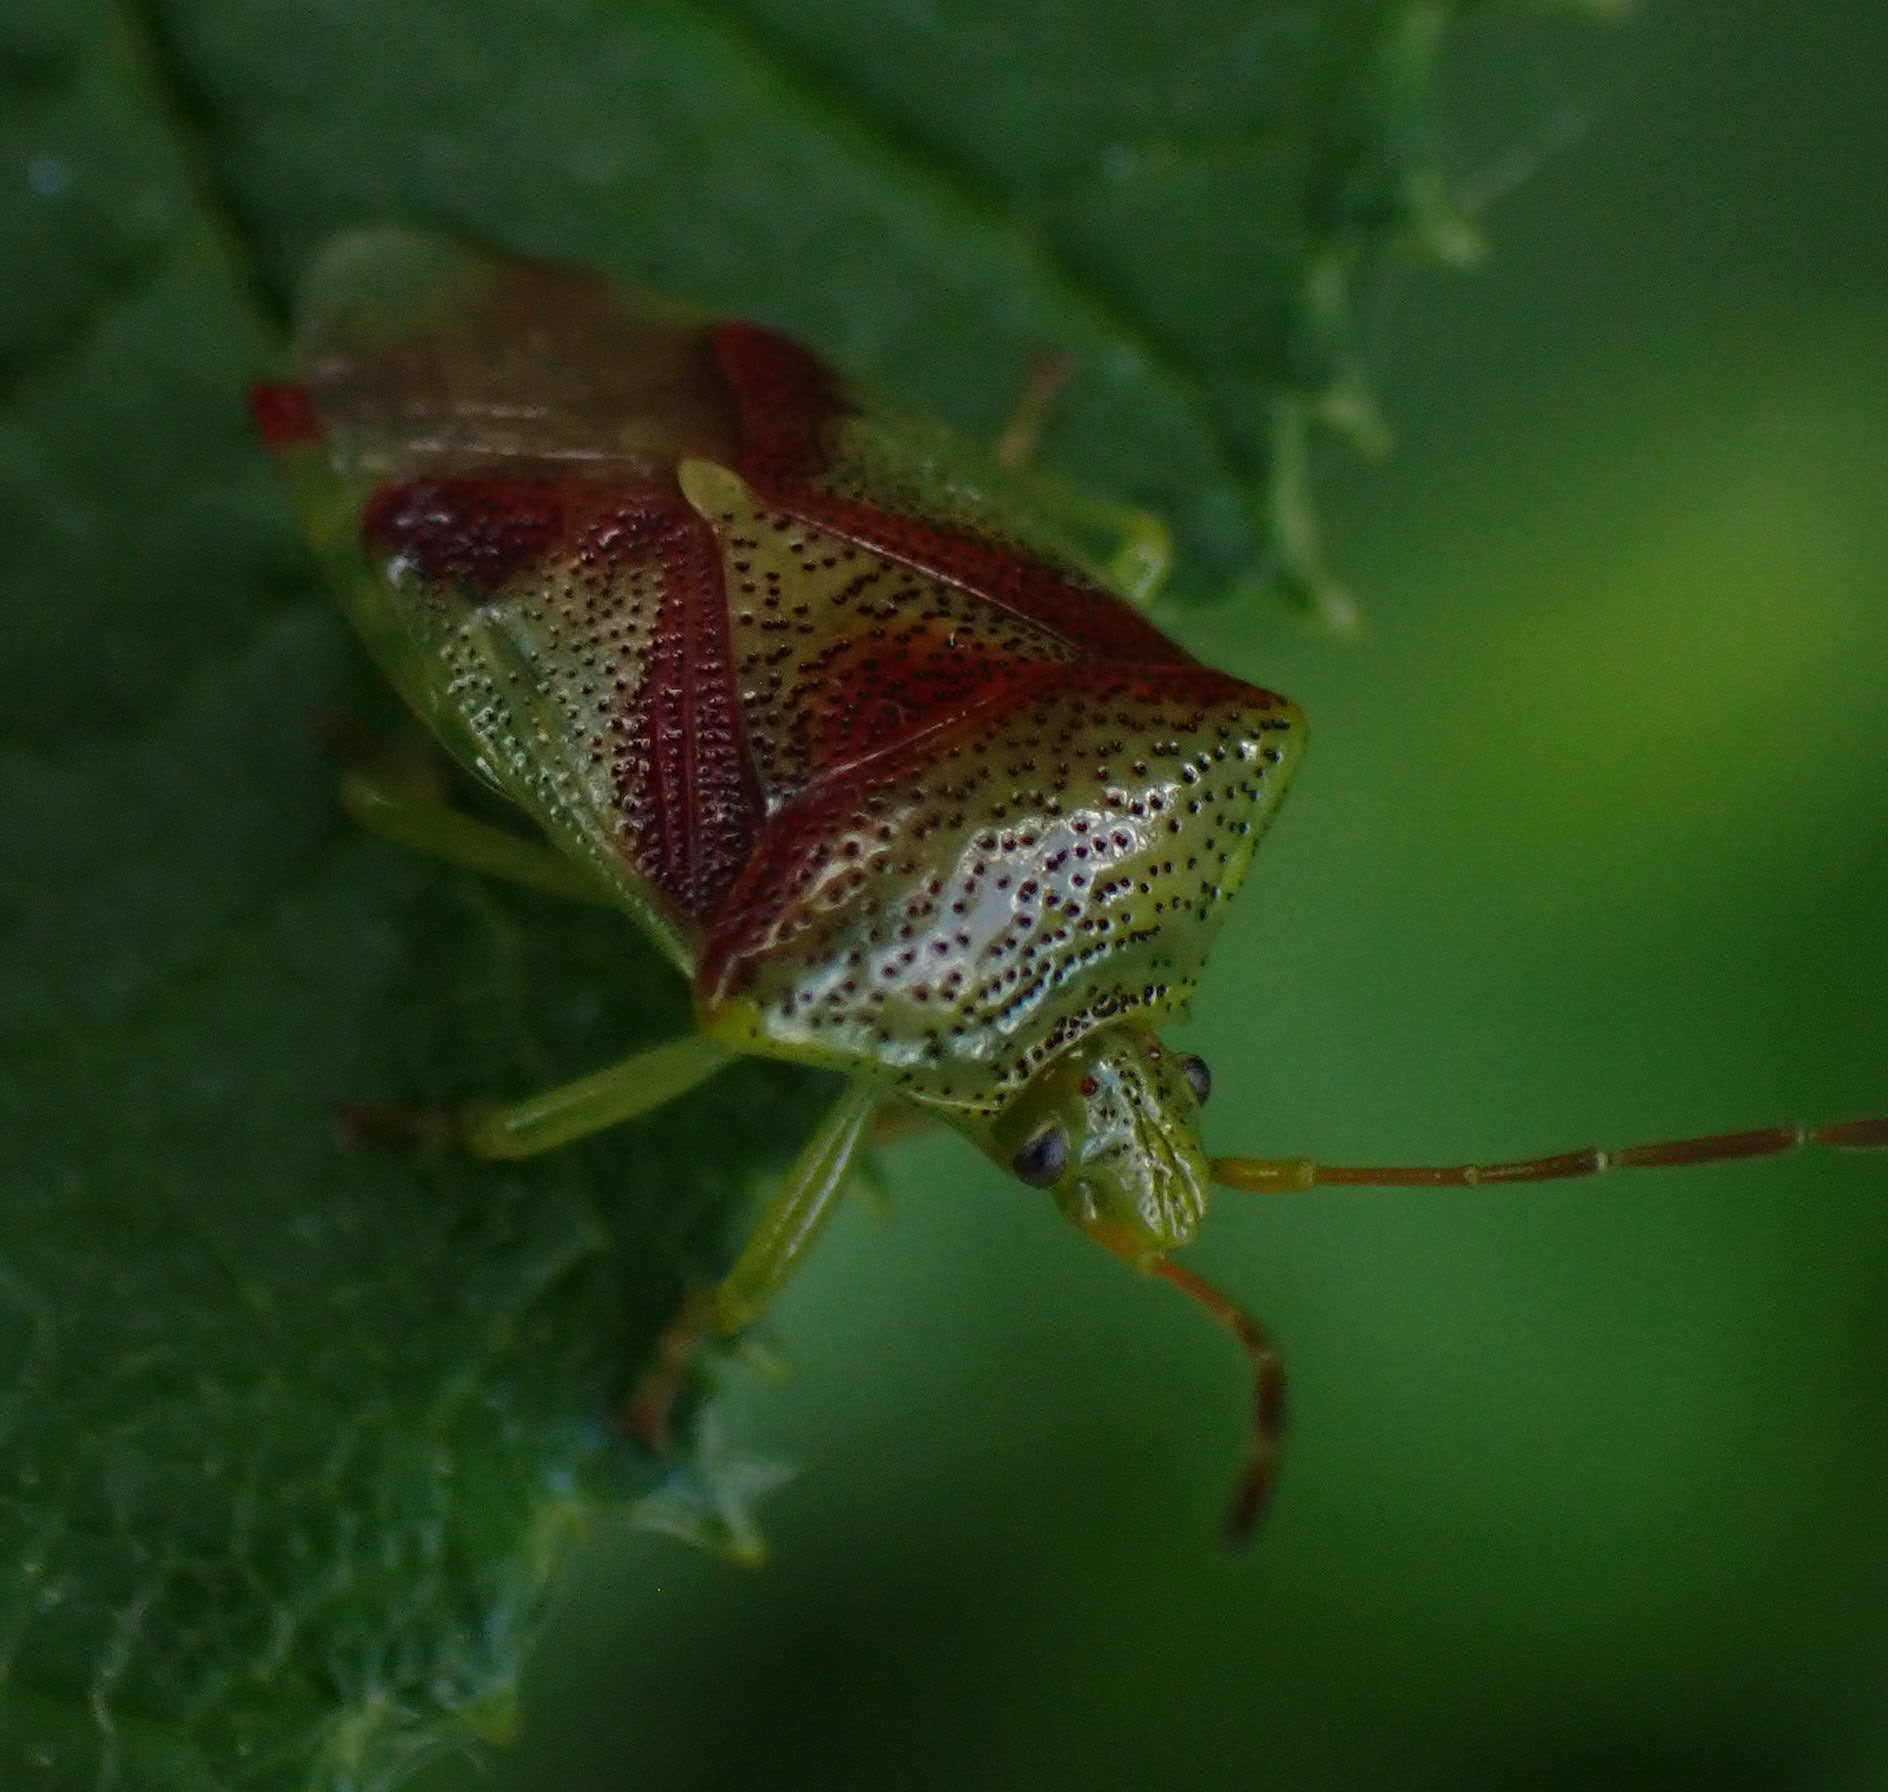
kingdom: Animalia
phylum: Arthropoda
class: Insecta
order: Hemiptera
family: Acanthosomatidae
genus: Elasmostethus
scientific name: Elasmostethus cruciatus
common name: Red-cross shield bug
